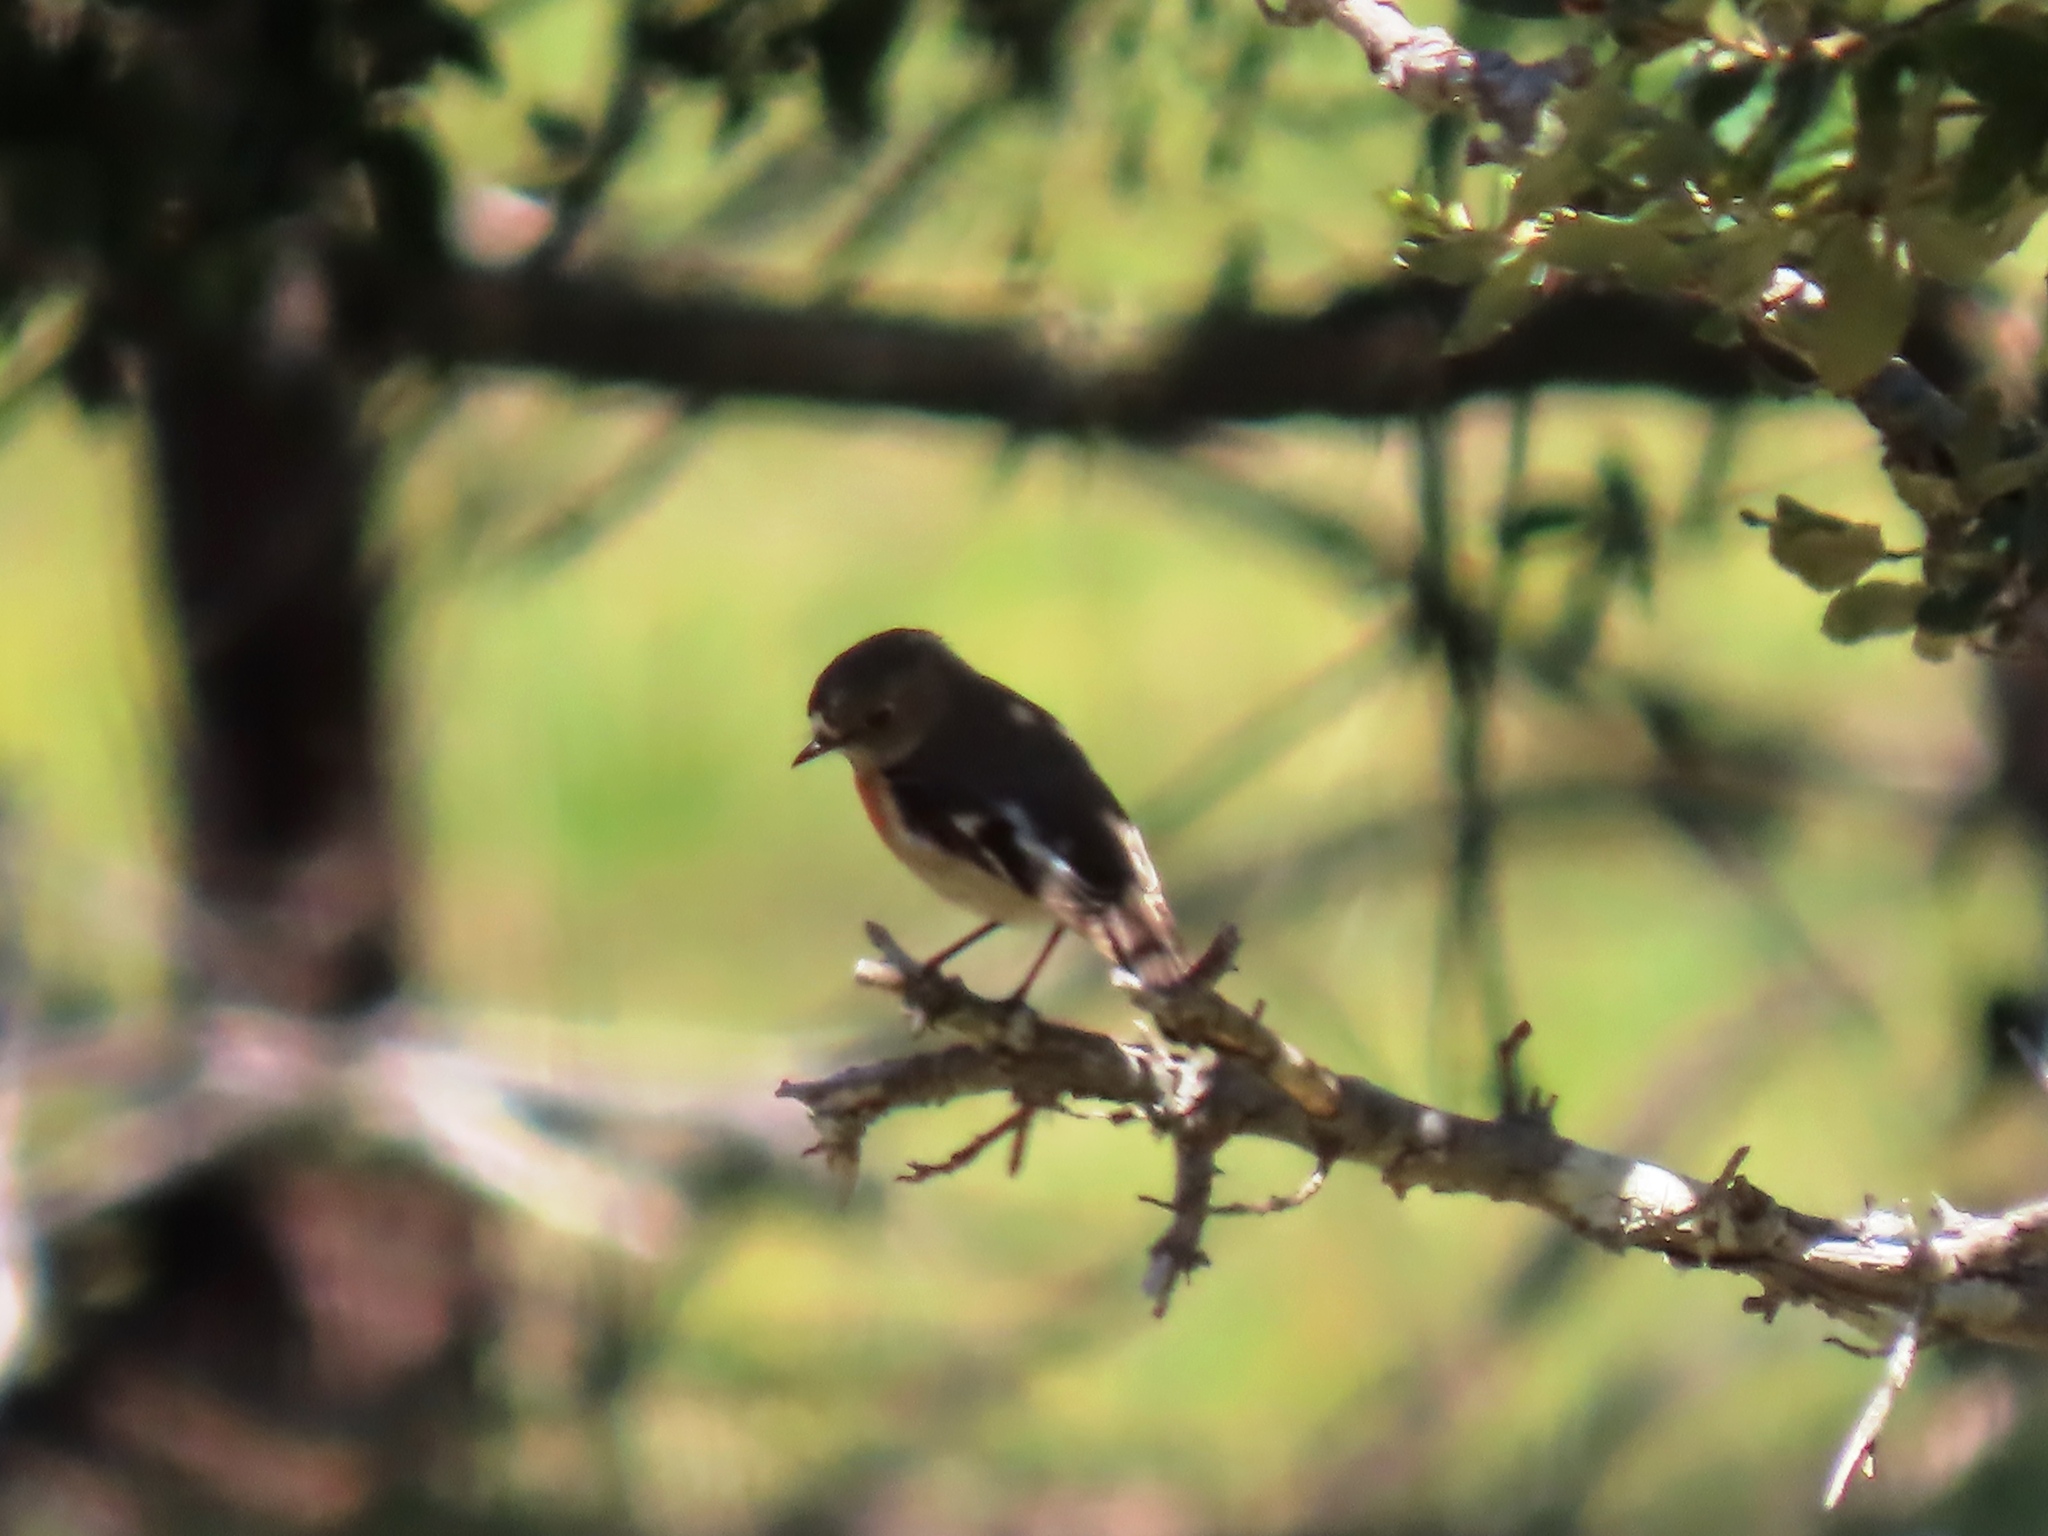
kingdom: Animalia
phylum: Chordata
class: Aves
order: Passeriformes
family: Petroicidae
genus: Petroica
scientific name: Petroica boodang
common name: Scarlet robin
